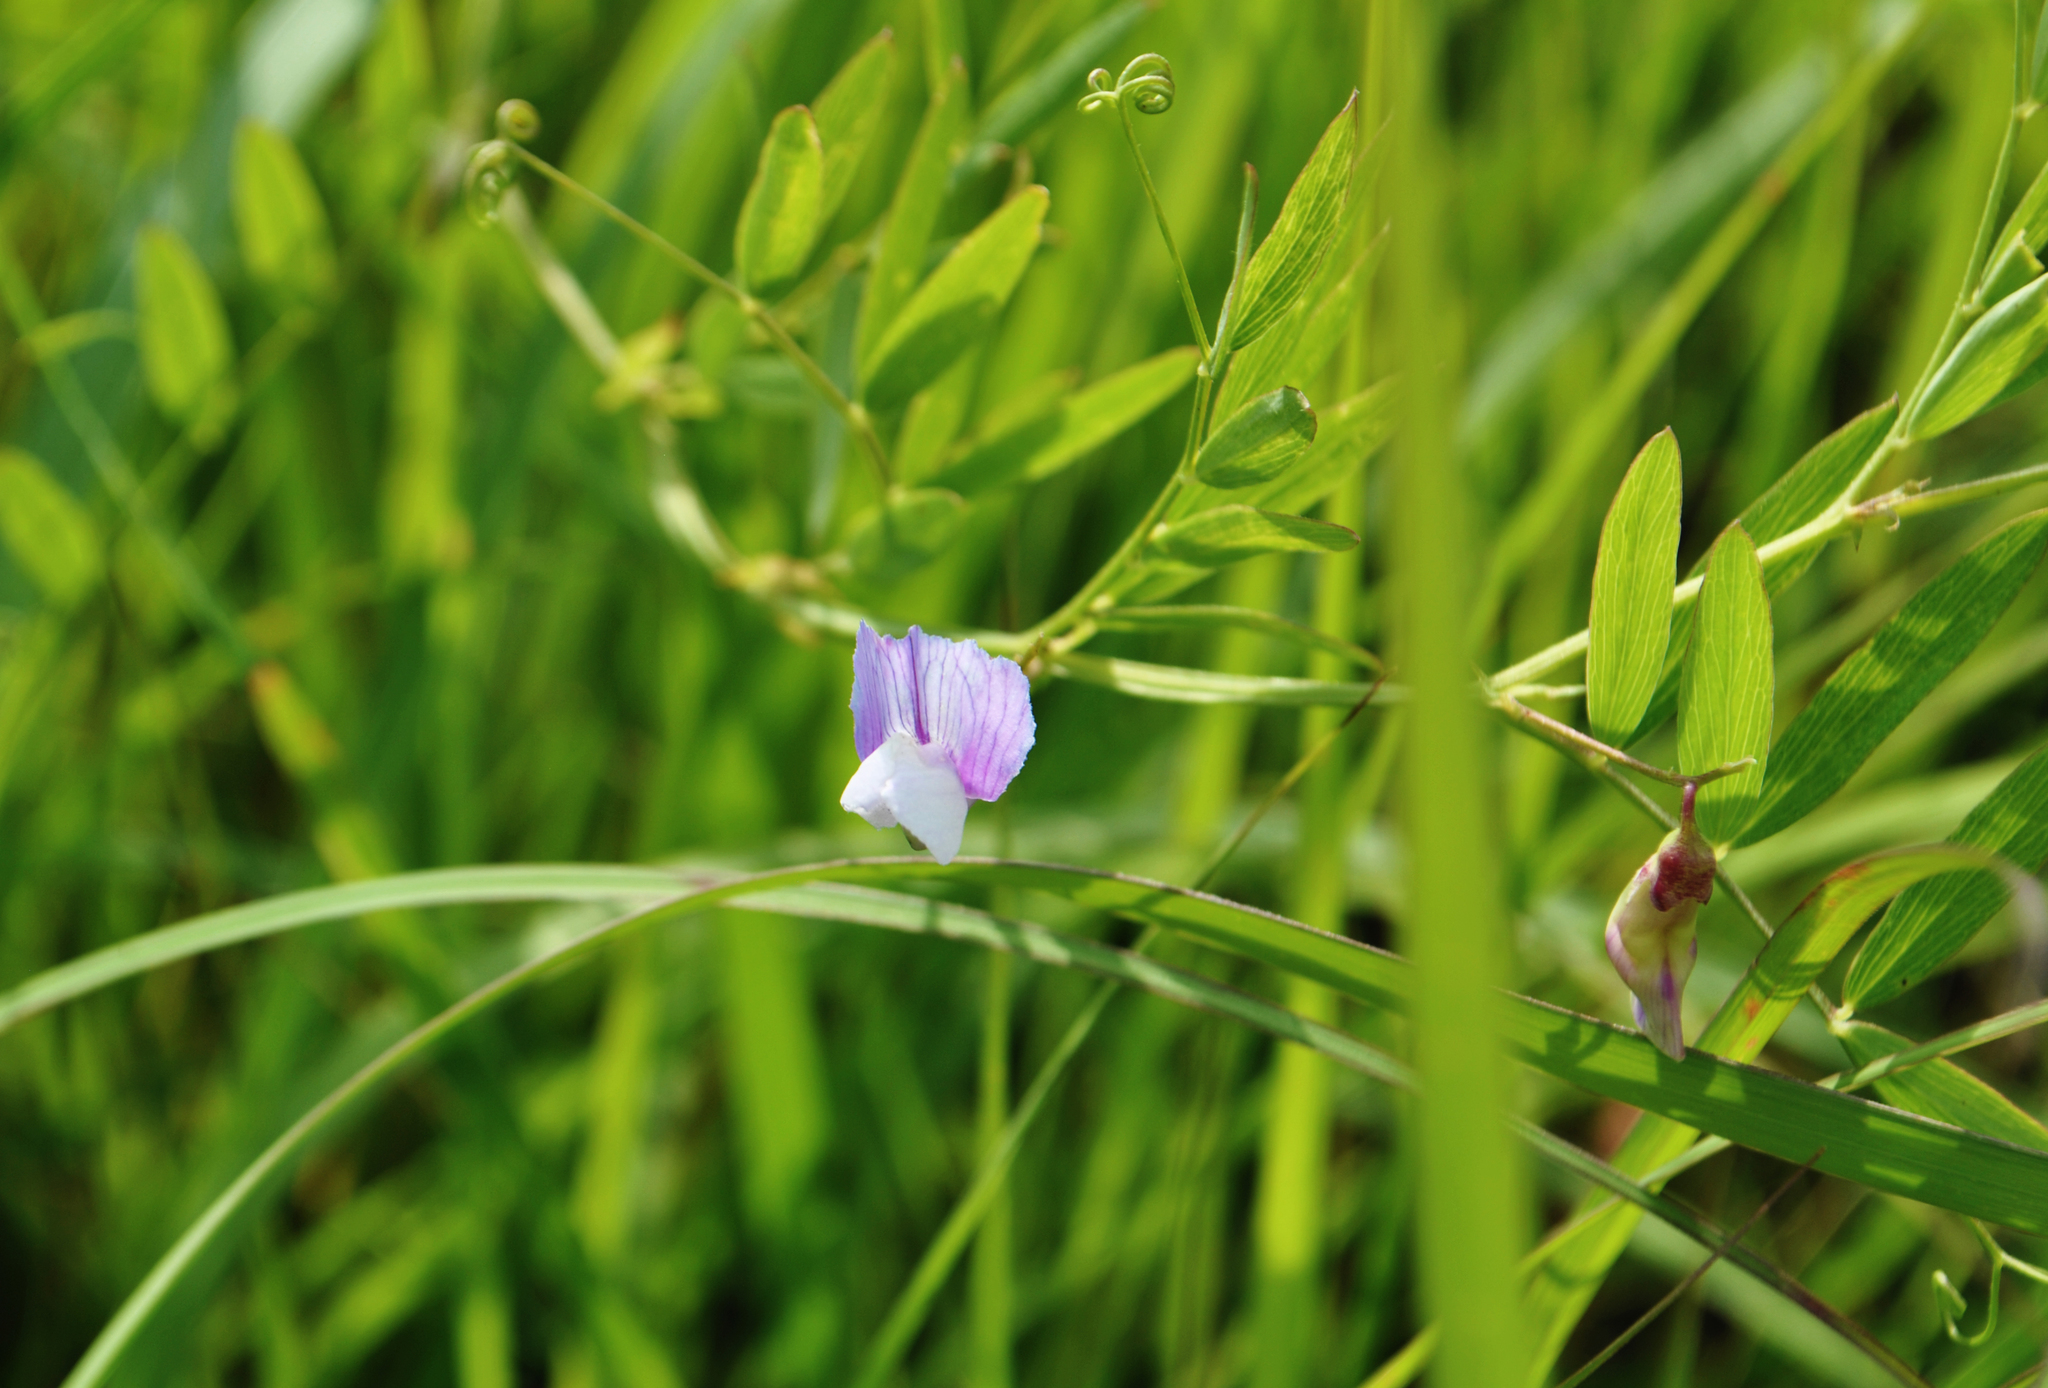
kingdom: Plantae
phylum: Tracheophyta
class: Magnoliopsida
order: Fabales
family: Fabaceae
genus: Lathyrus
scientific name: Lathyrus palustris
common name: Marsh pea
